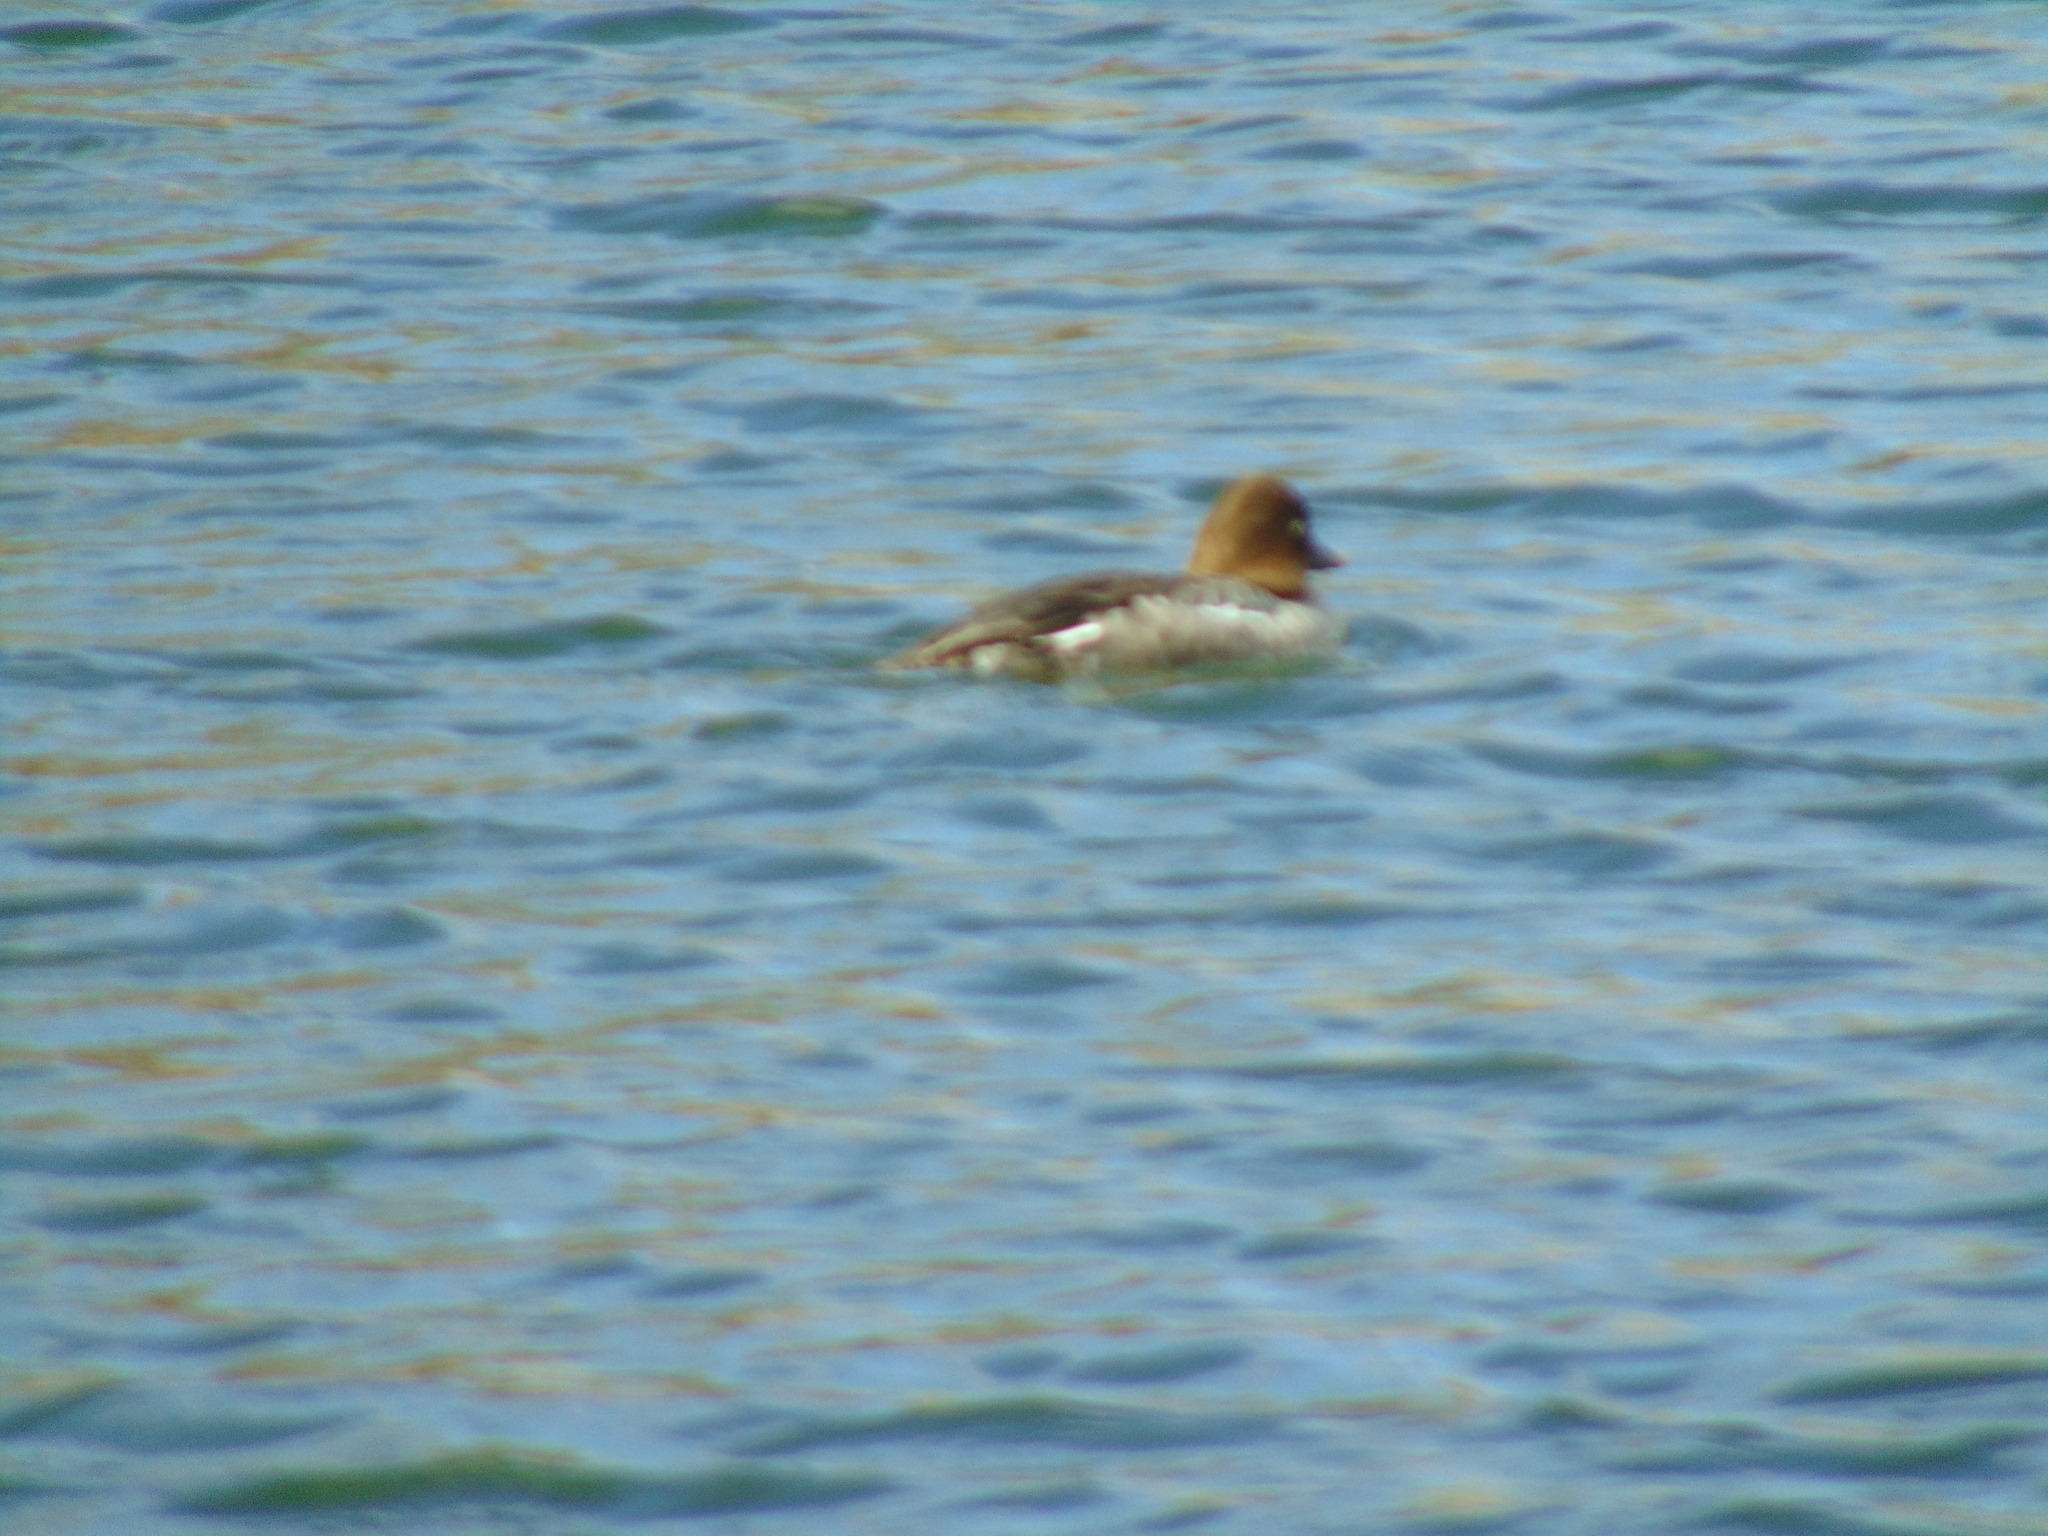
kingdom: Animalia
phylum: Chordata
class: Aves
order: Anseriformes
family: Anatidae
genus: Bucephala
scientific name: Bucephala clangula
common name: Common goldeneye
